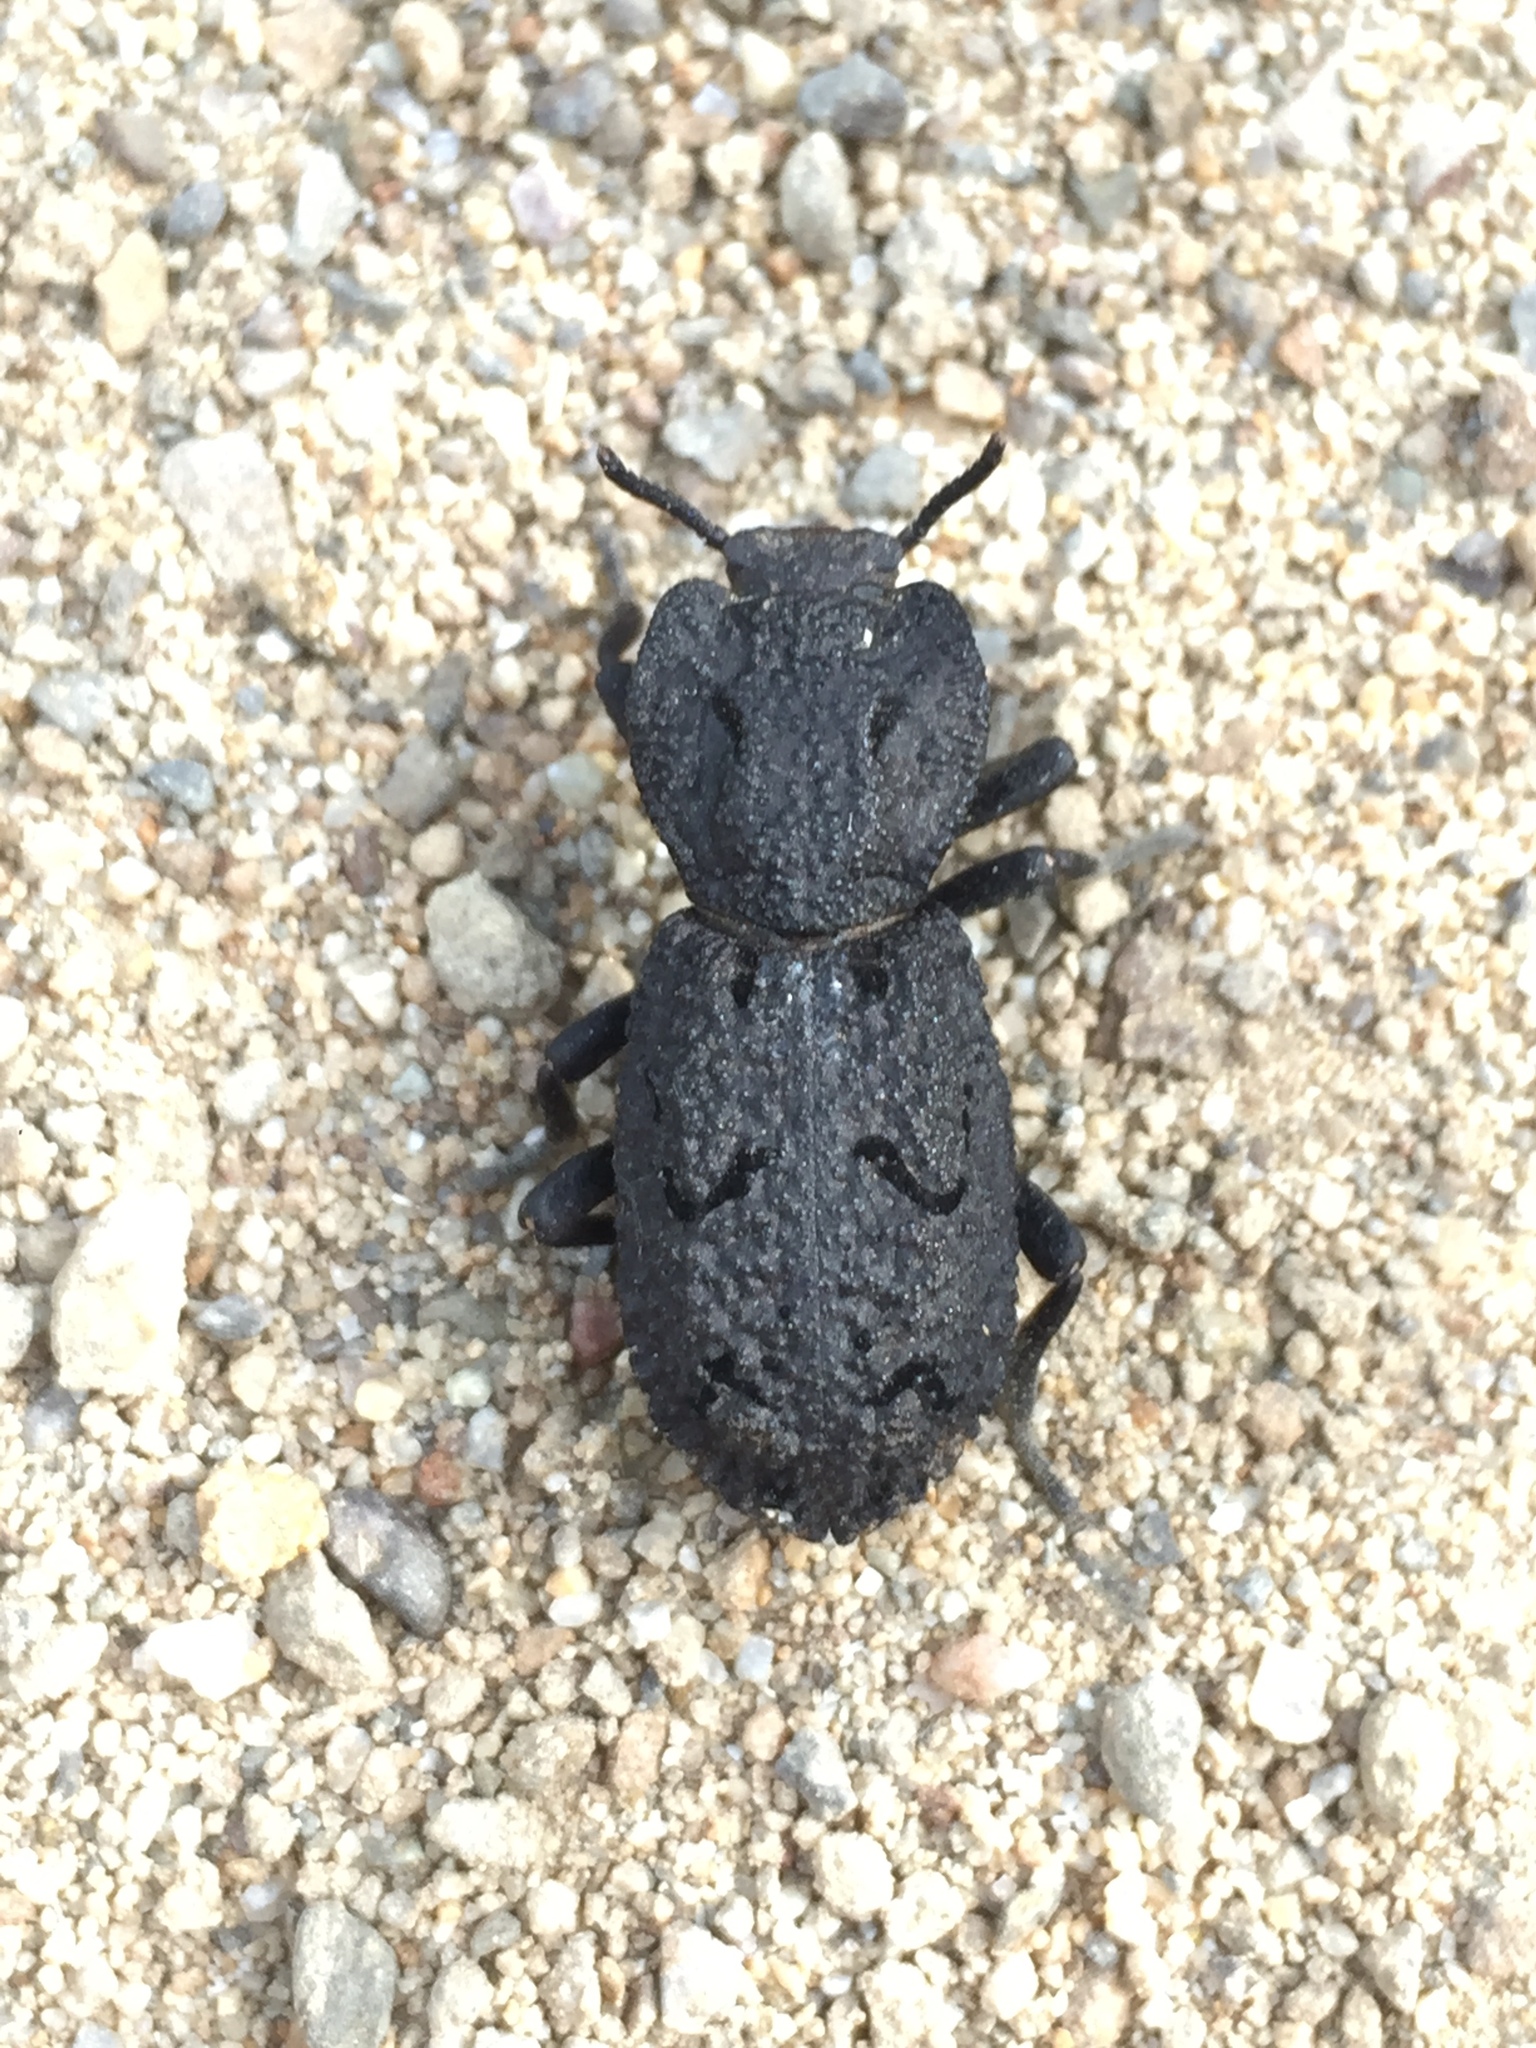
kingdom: Animalia
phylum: Arthropoda
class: Insecta
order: Coleoptera
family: Zopheridae
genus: Phloeodes
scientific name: Phloeodes diabolicus
